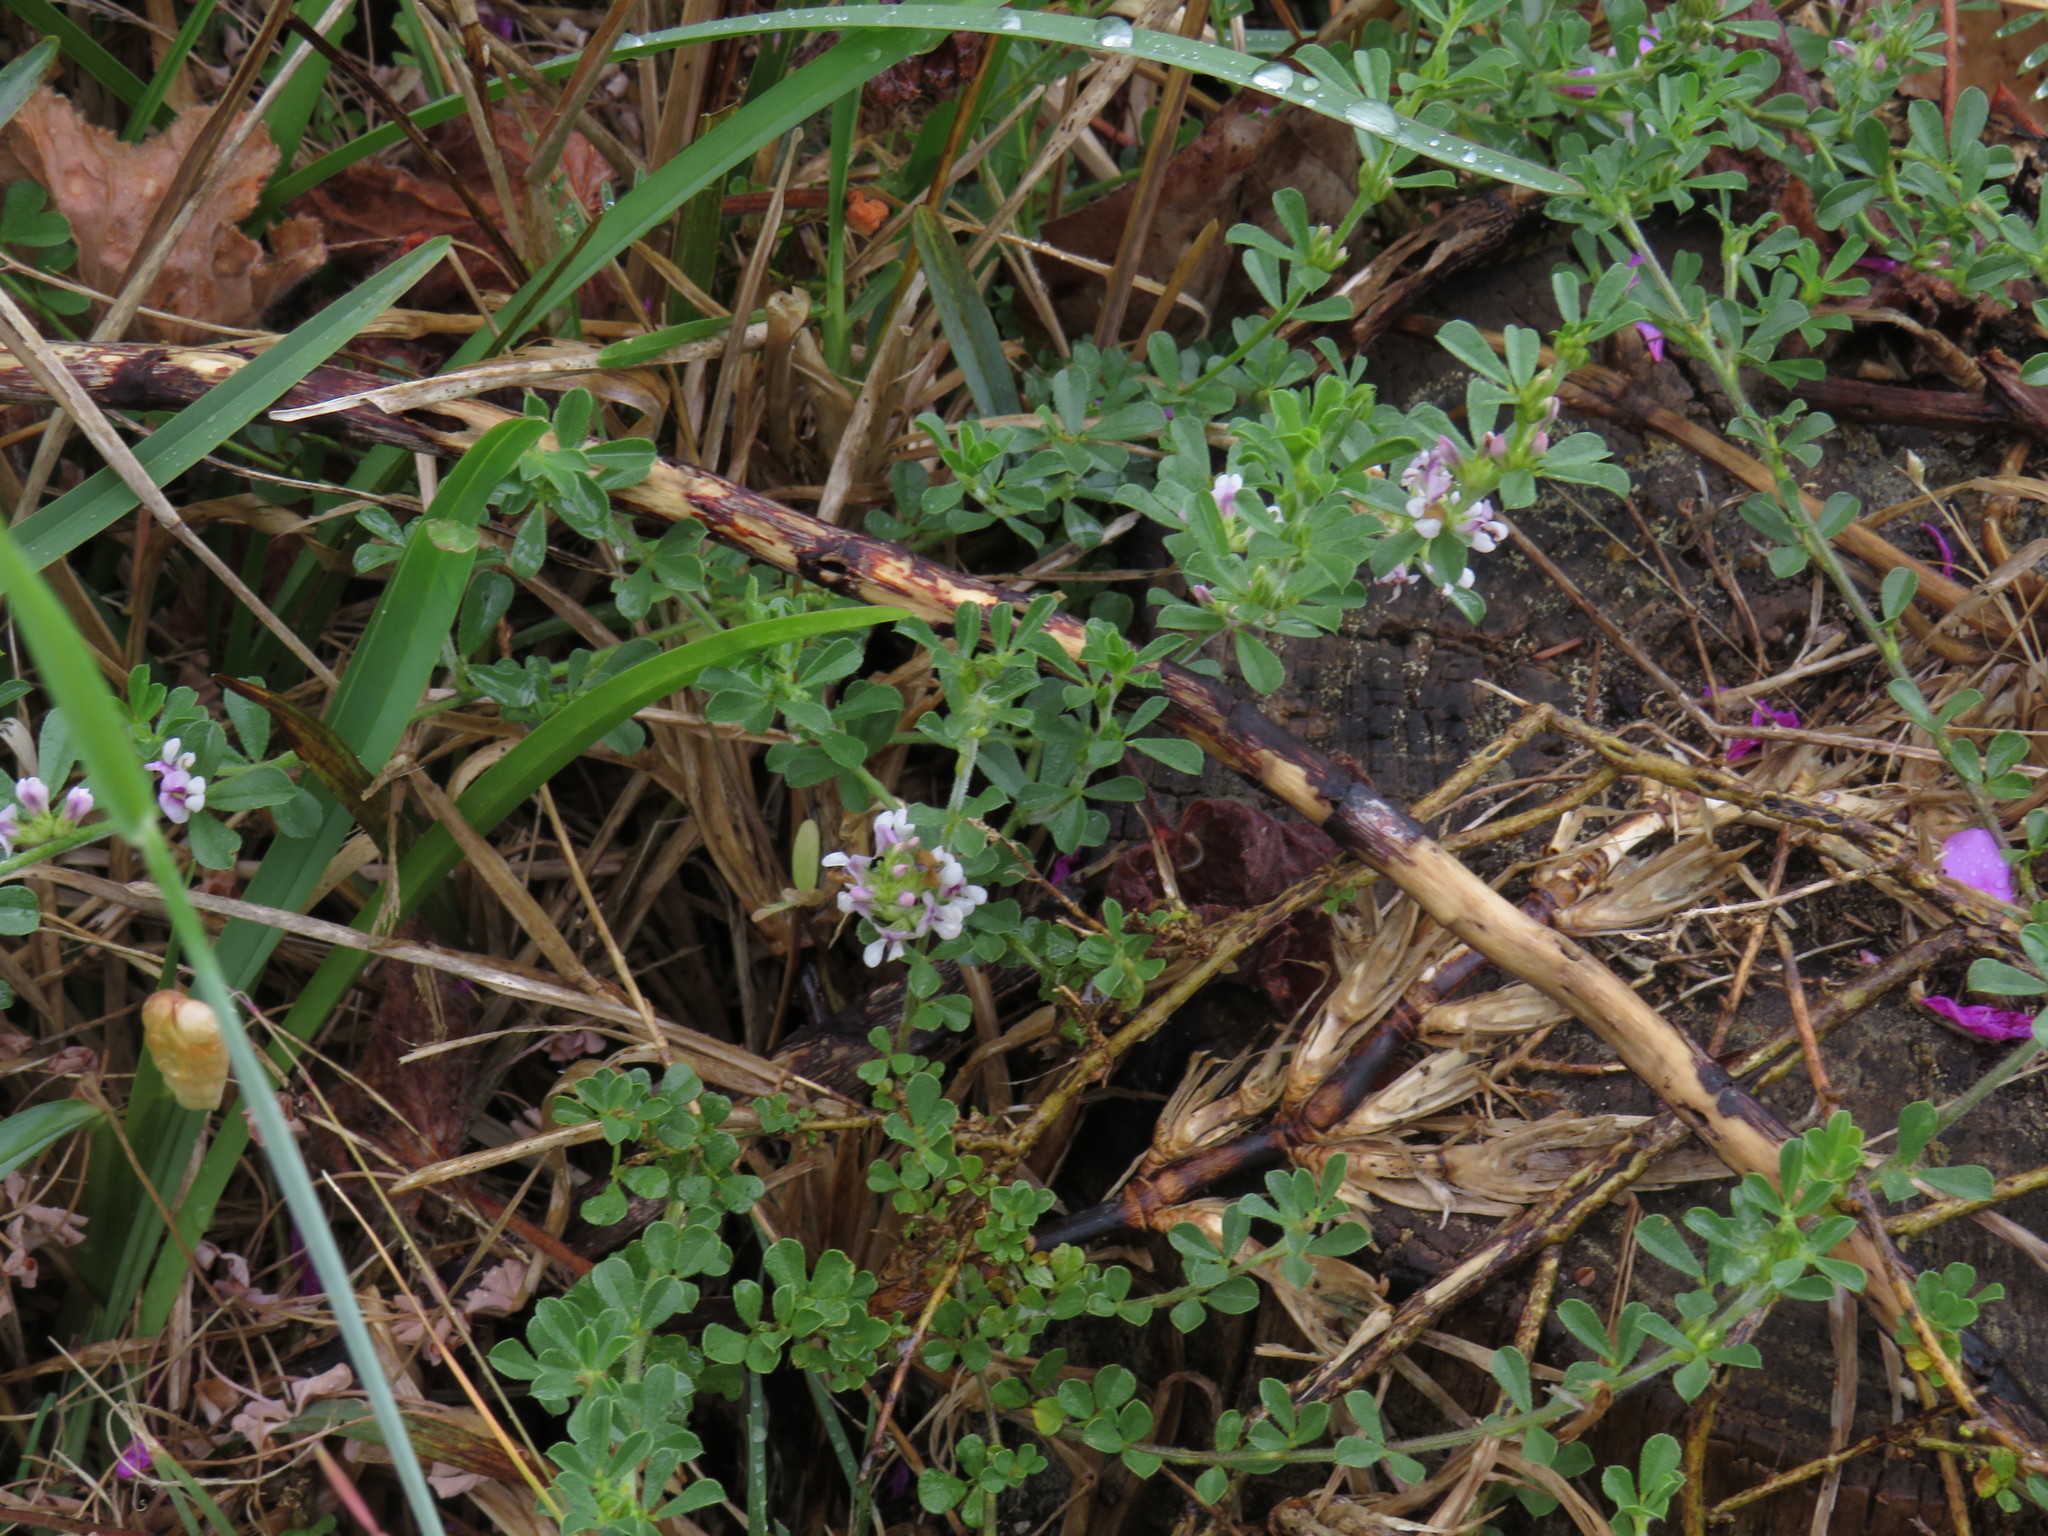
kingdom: Plantae
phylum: Tracheophyta
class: Magnoliopsida
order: Fabales
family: Fabaceae
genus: Psoralea
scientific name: Psoralea
